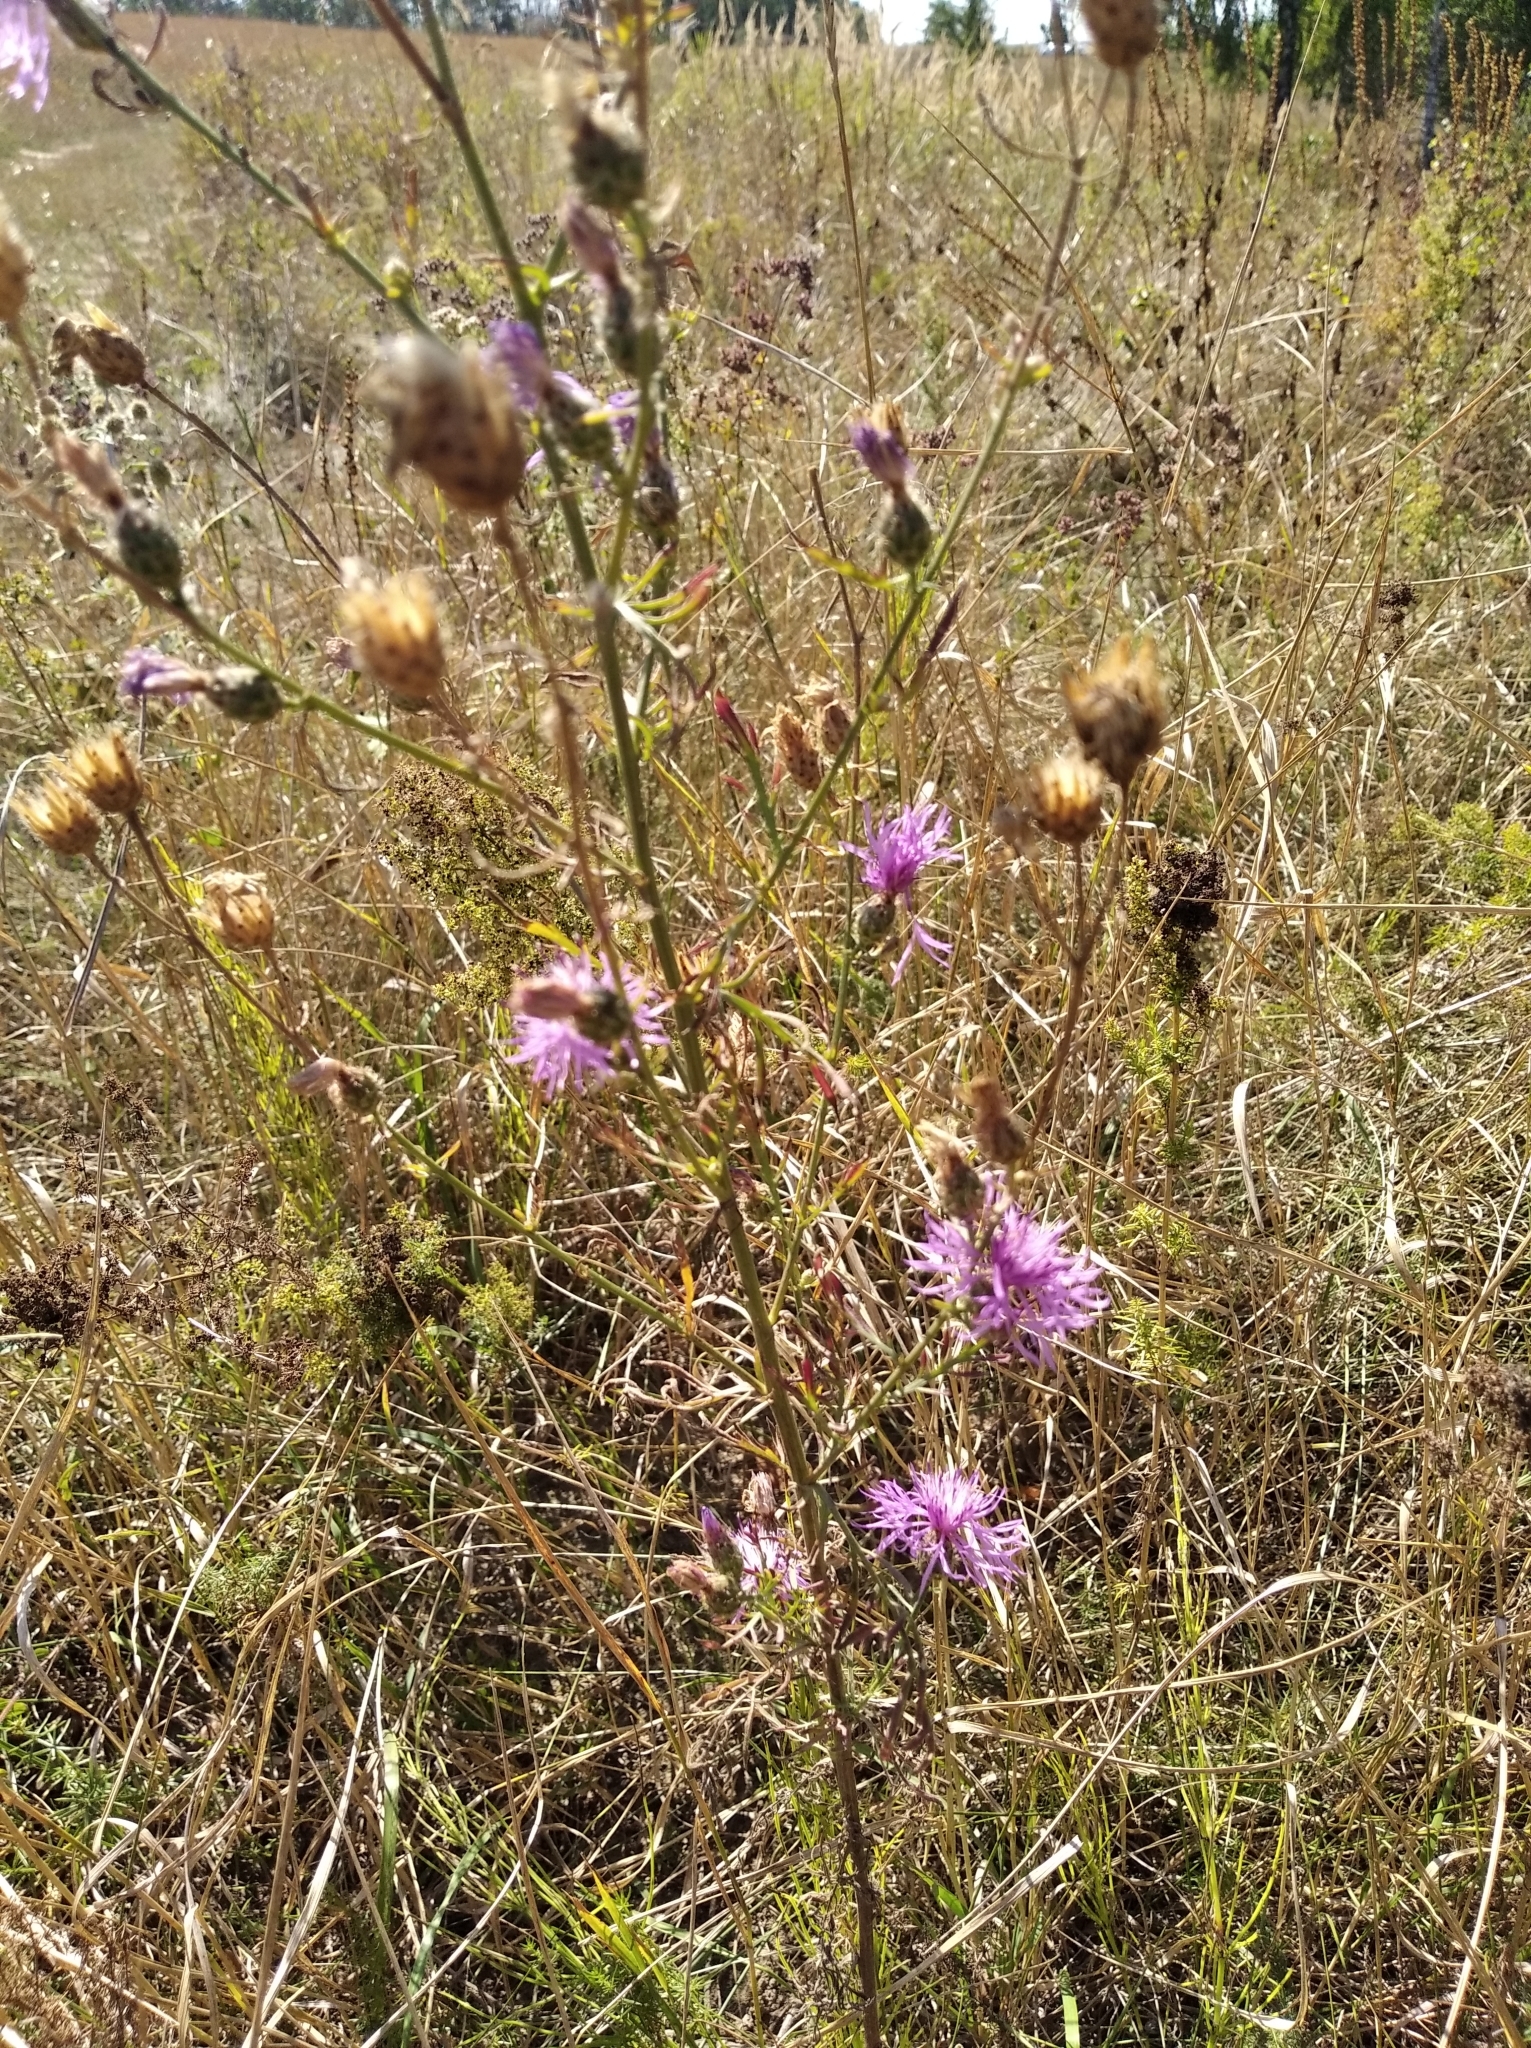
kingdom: Plantae
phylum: Tracheophyta
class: Magnoliopsida
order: Asterales
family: Asteraceae
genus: Centaurea
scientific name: Centaurea stoebe
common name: Spotted knapweed
